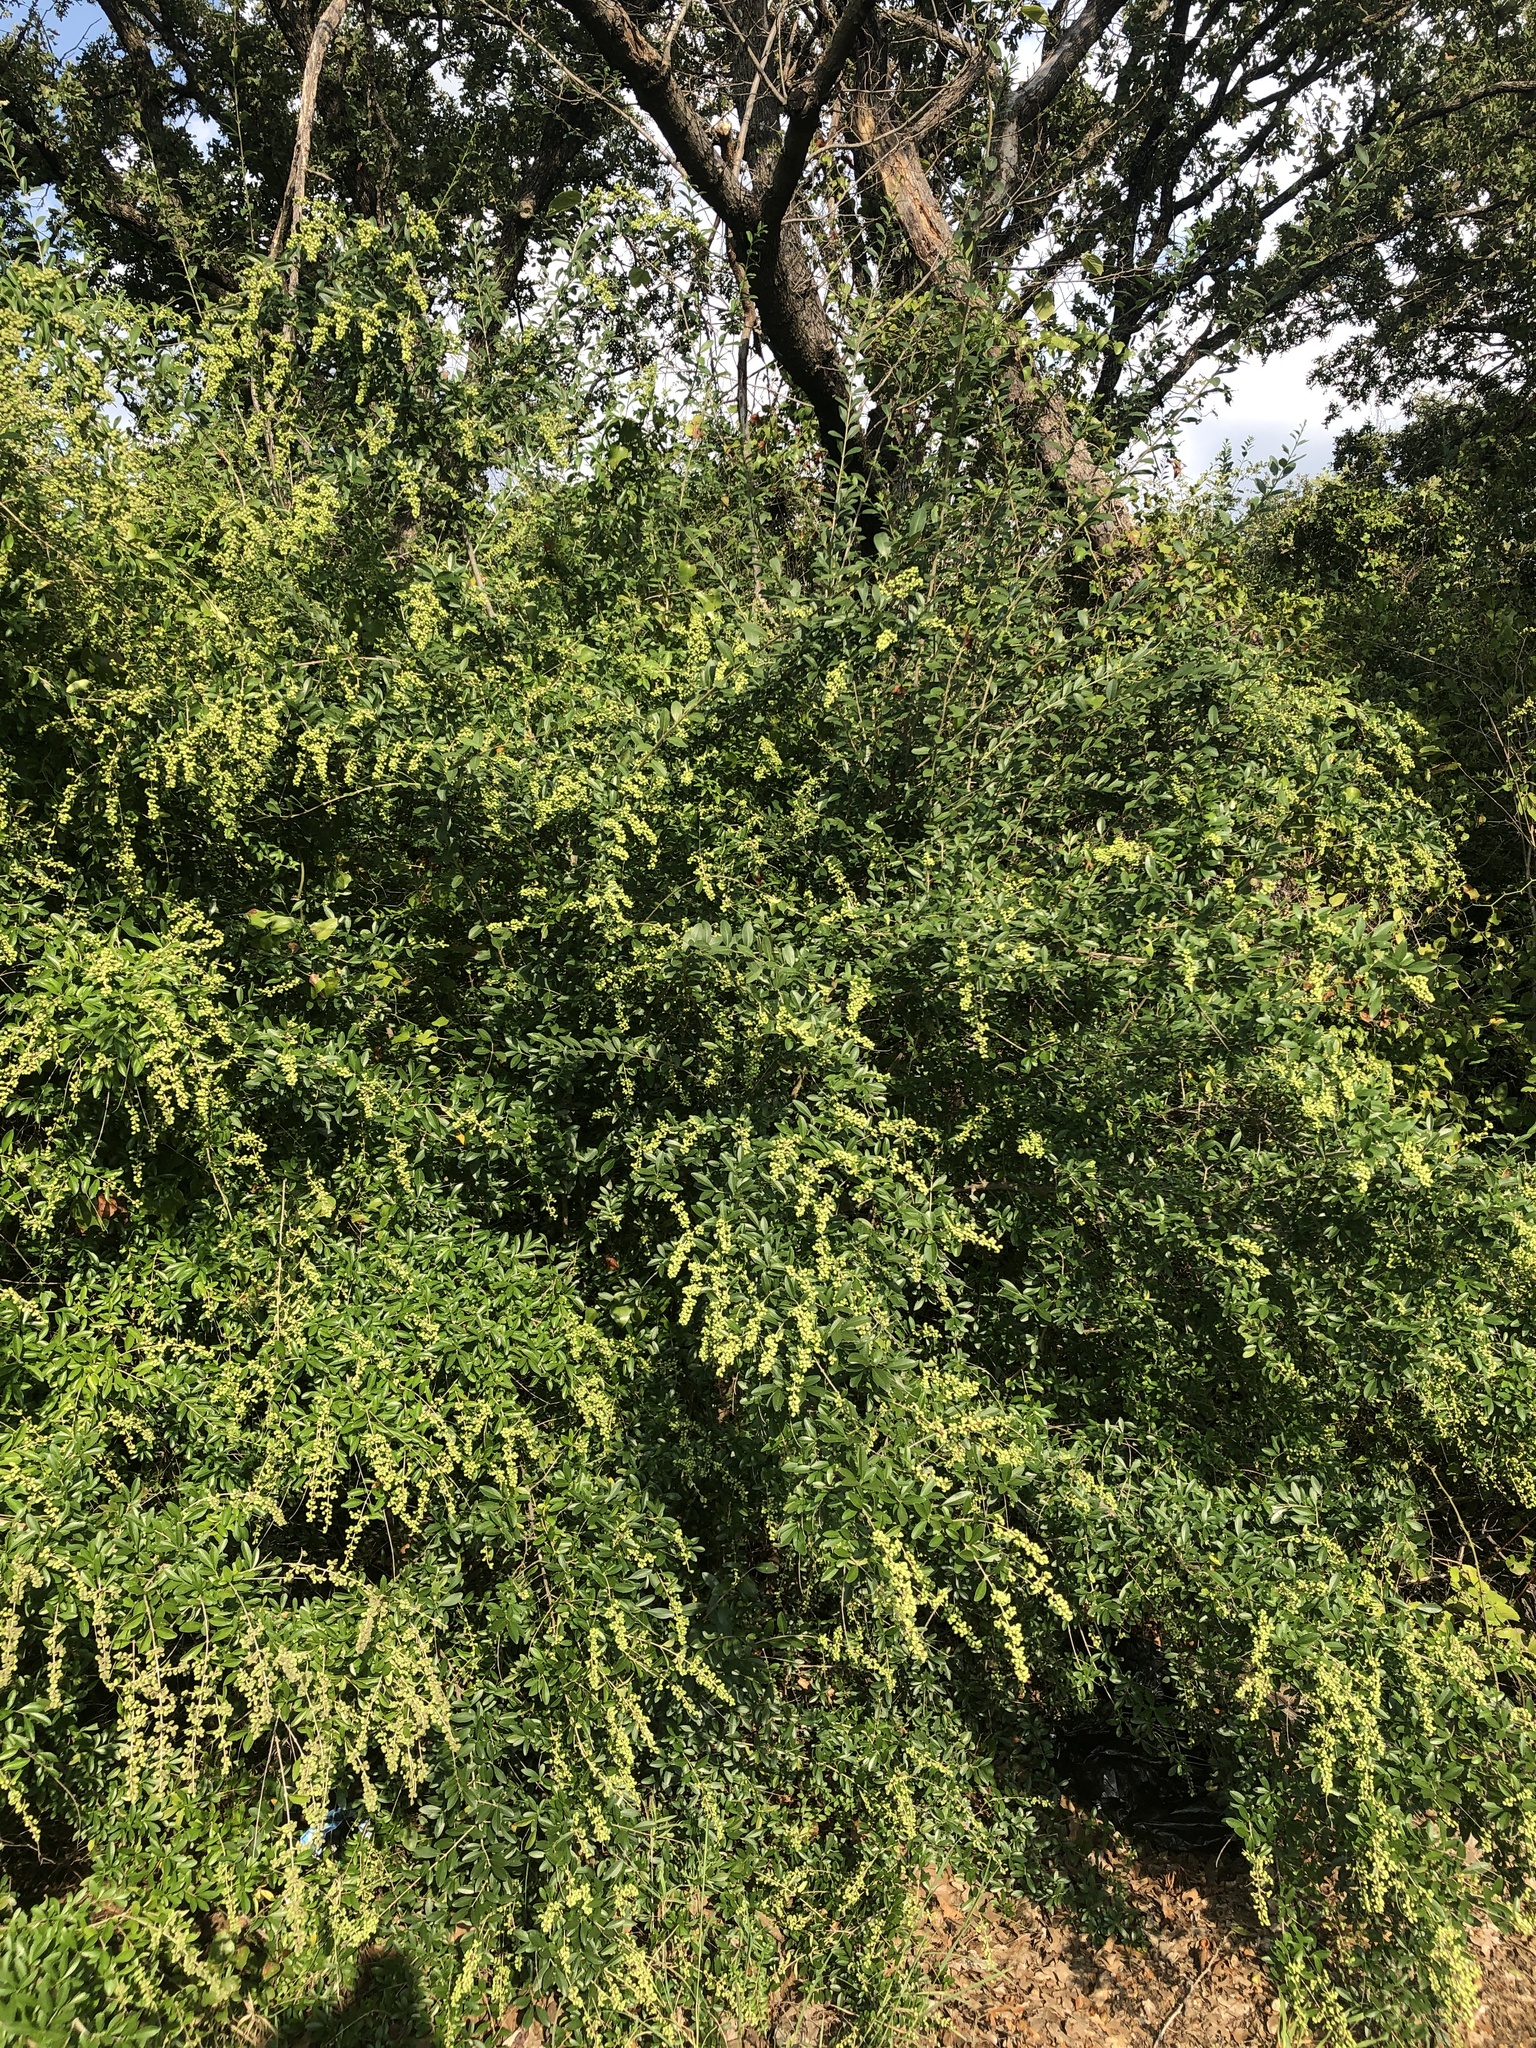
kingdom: Plantae
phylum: Tracheophyta
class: Magnoliopsida
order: Lamiales
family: Oleaceae
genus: Ligustrum
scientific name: Ligustrum quihoui
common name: Waxyleaf privet
